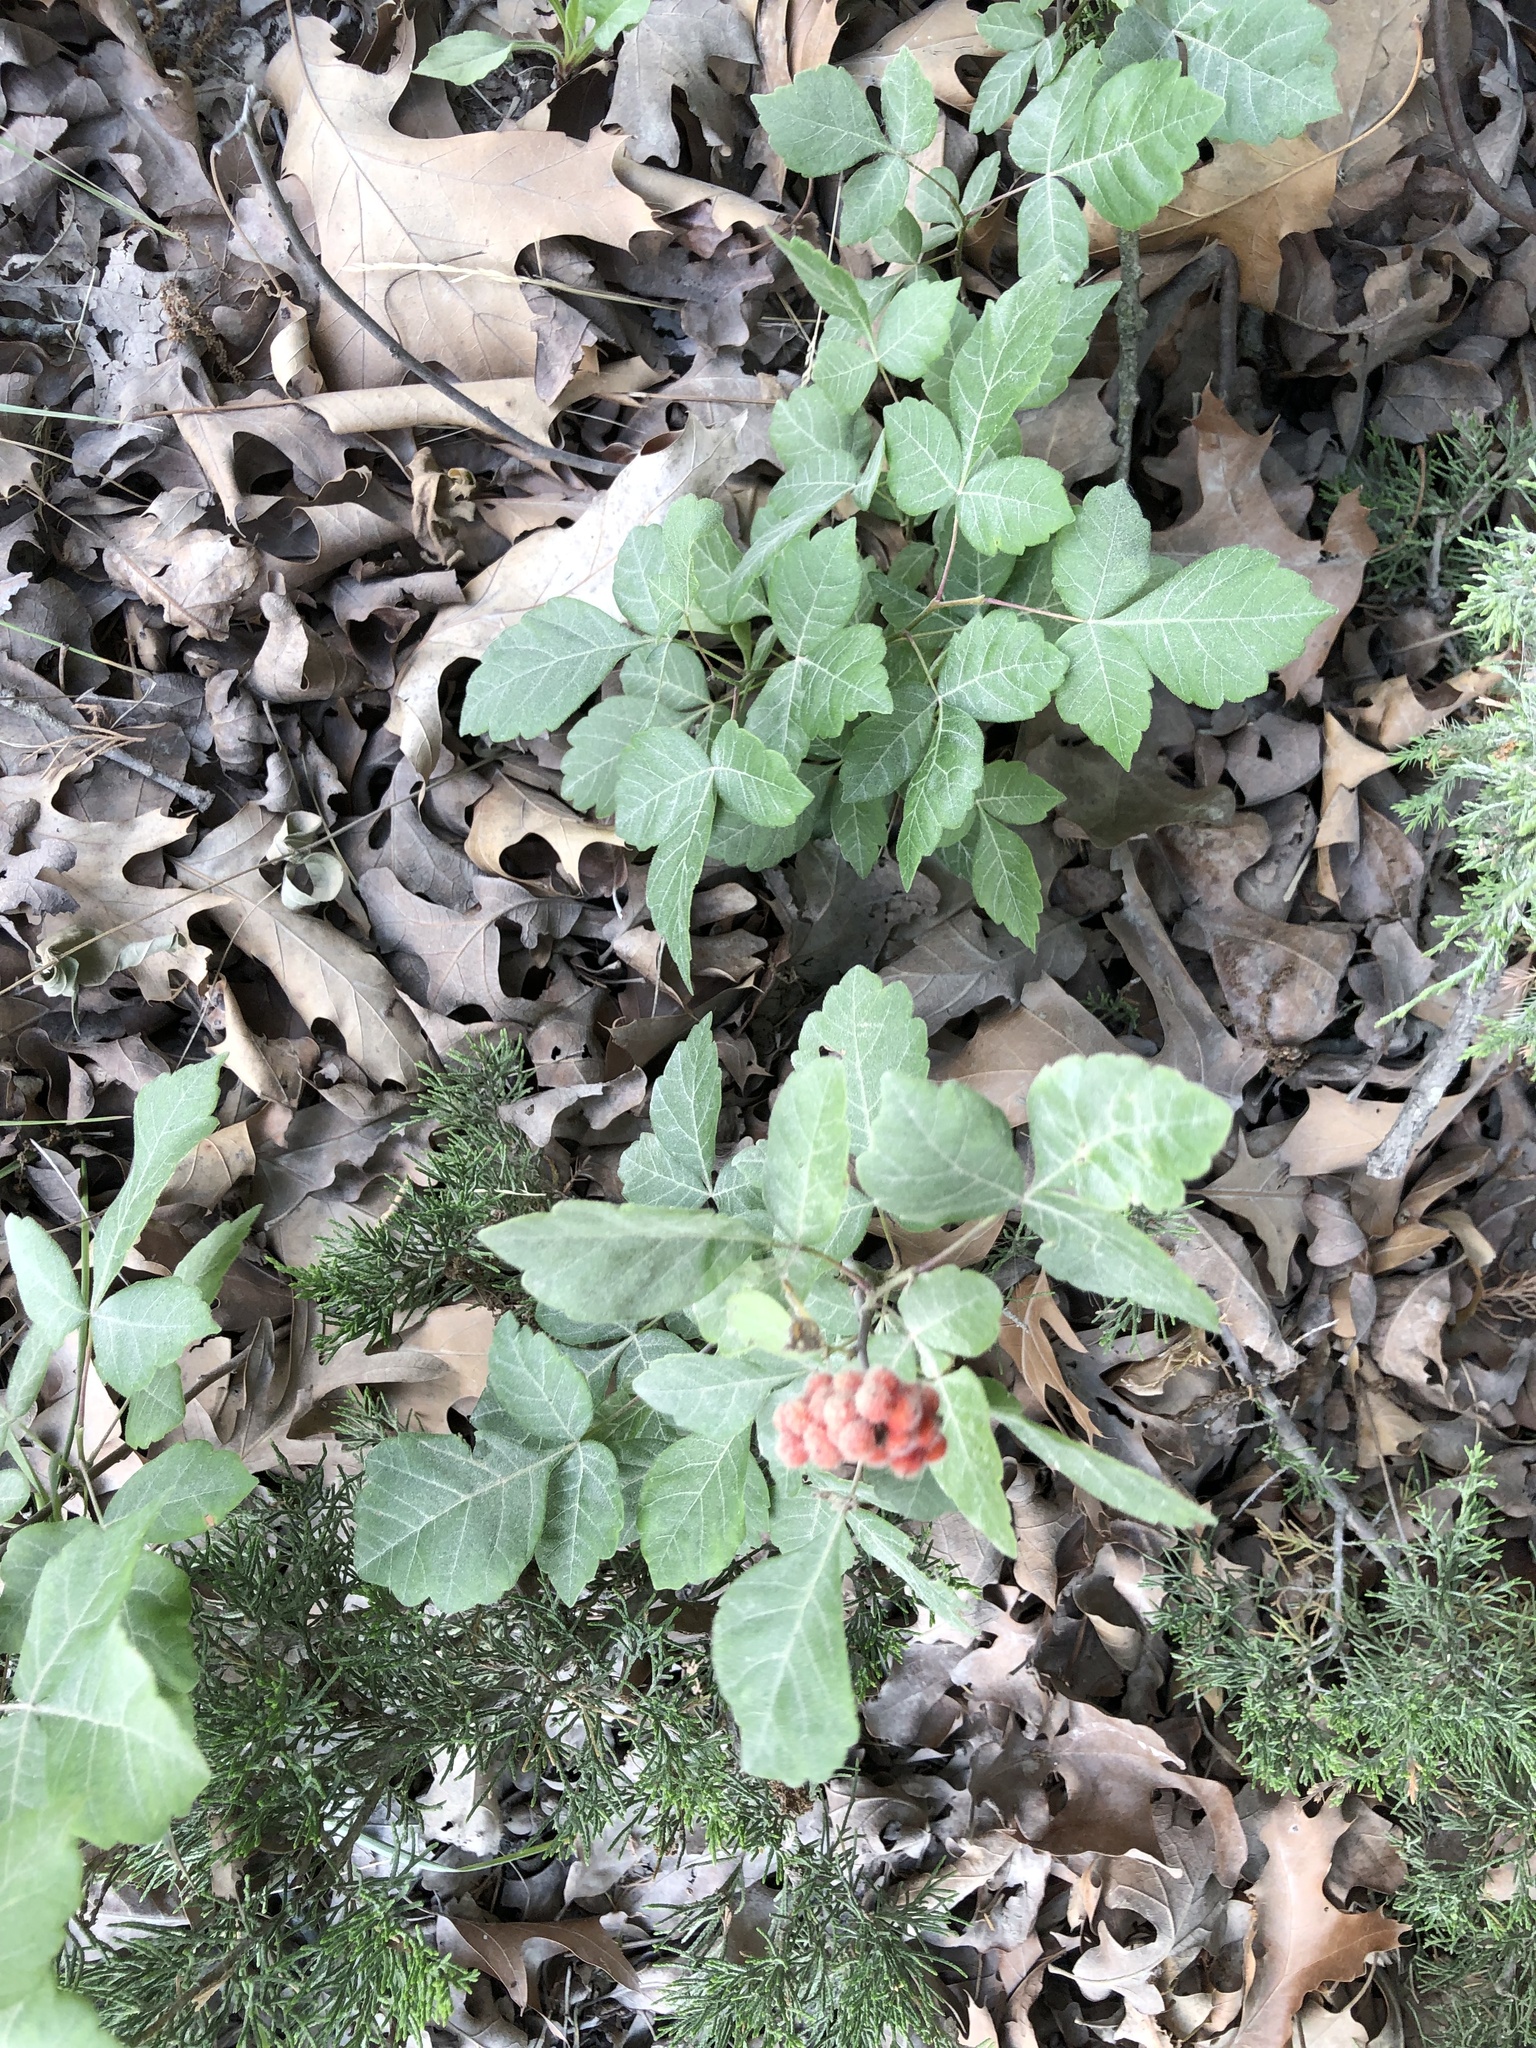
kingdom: Plantae
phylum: Tracheophyta
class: Magnoliopsida
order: Sapindales
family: Anacardiaceae
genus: Rhus
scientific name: Rhus aromatica
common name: Aromatic sumac
